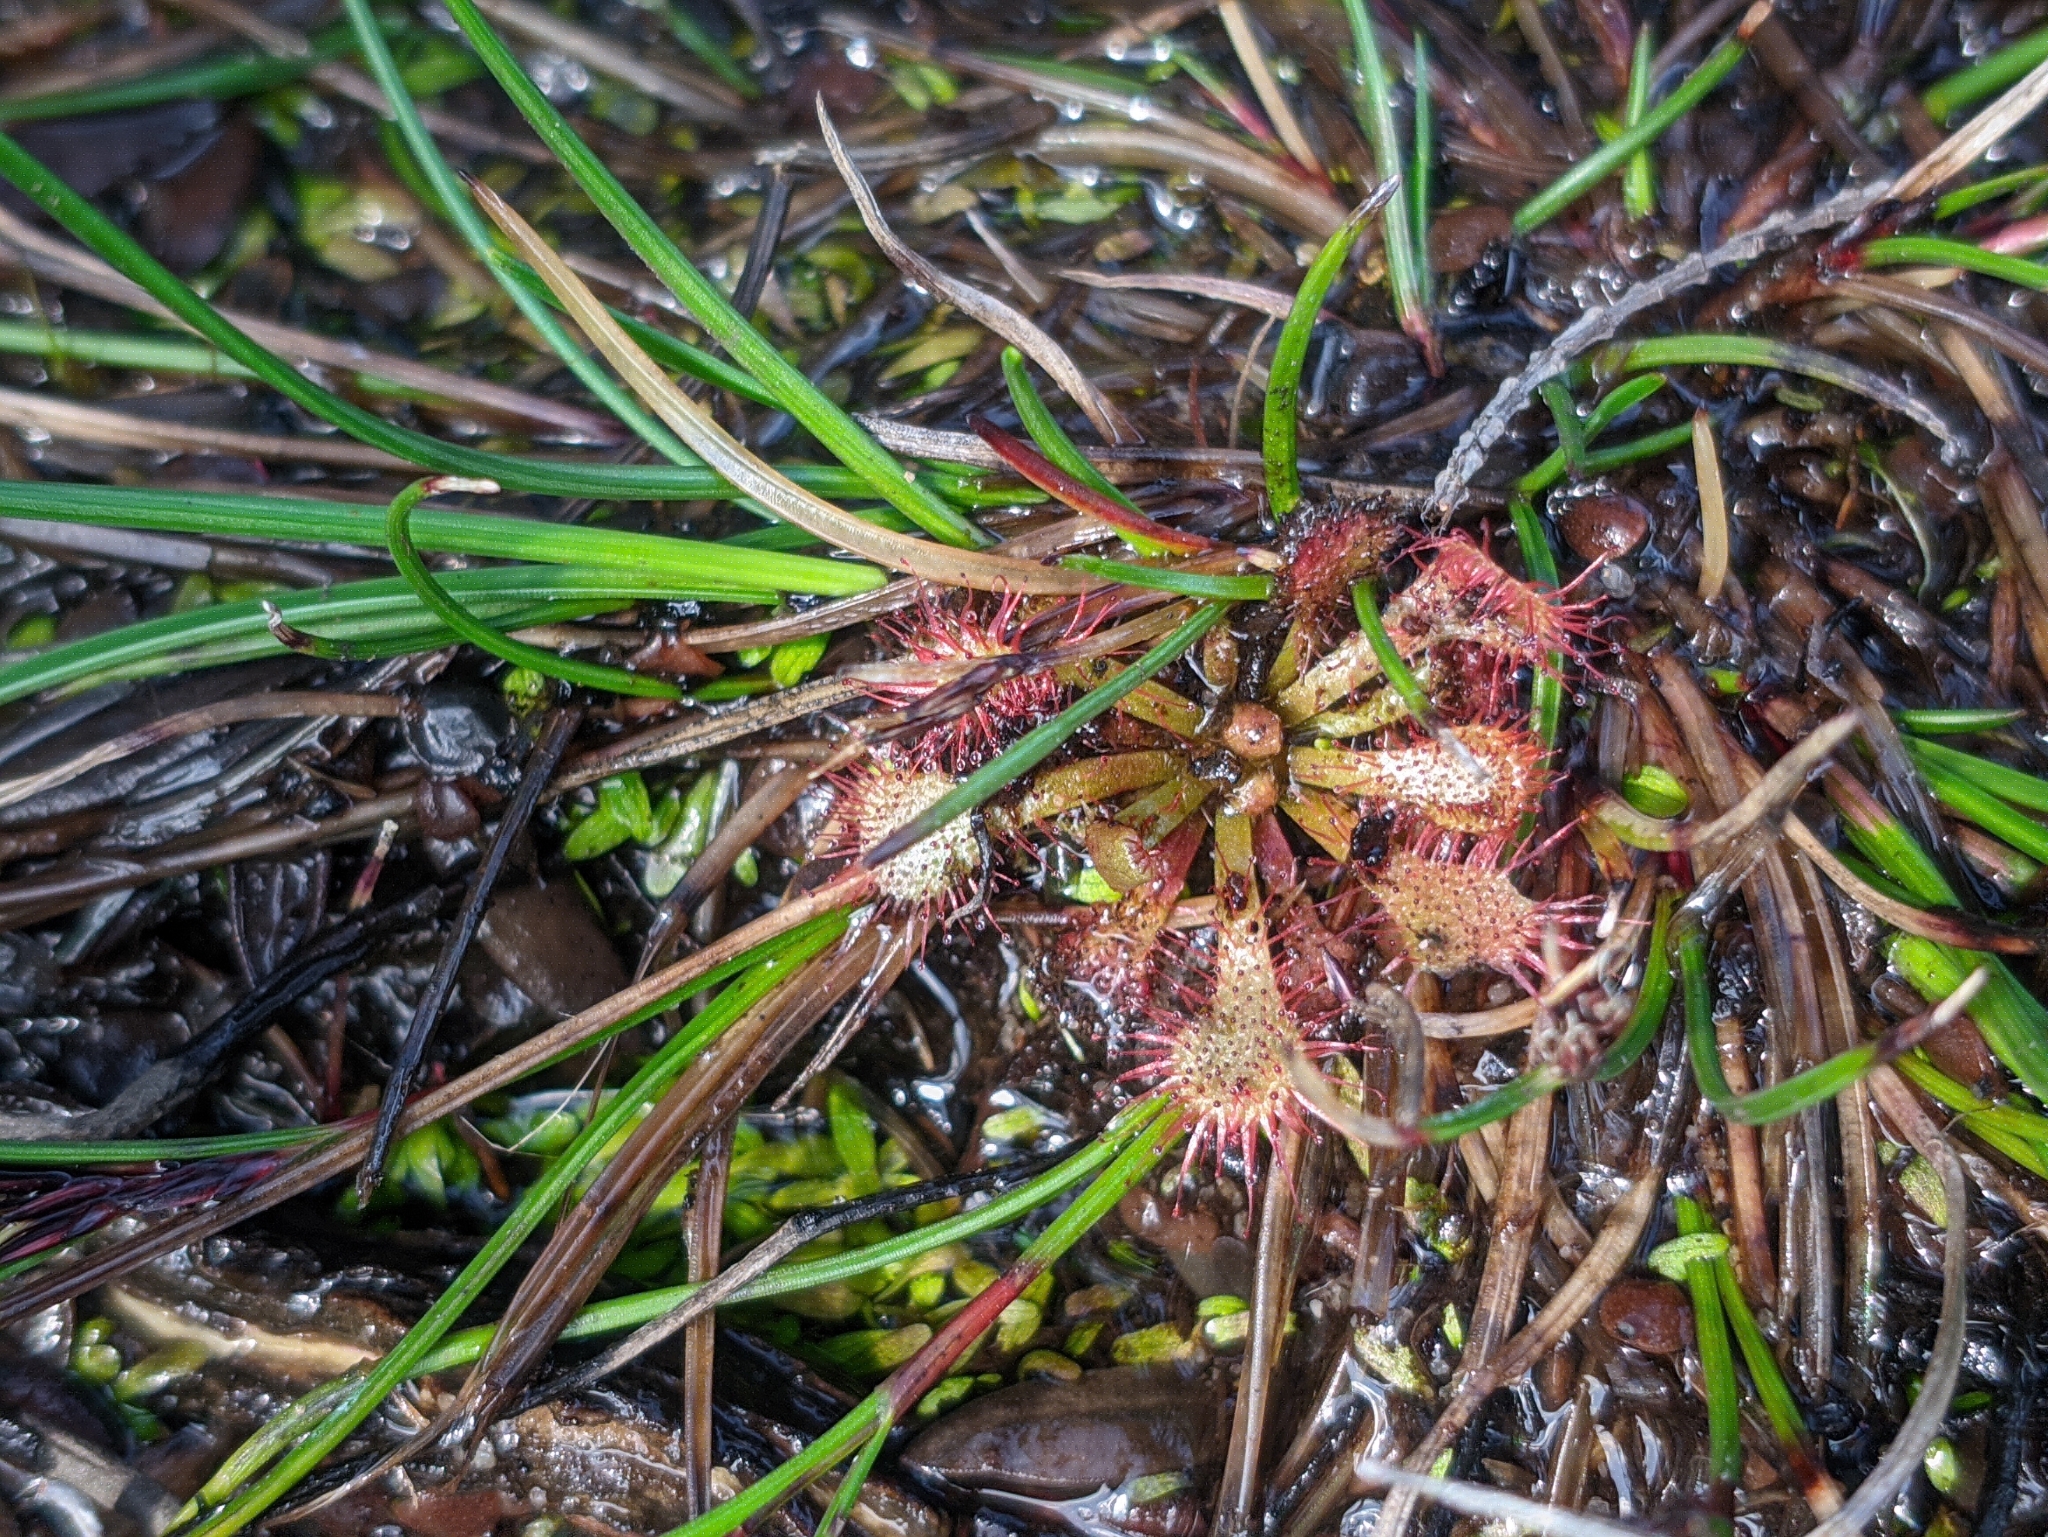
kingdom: Plantae
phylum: Tracheophyta
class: Magnoliopsida
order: Caryophyllales
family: Droseraceae
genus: Drosera
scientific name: Drosera spatulata
